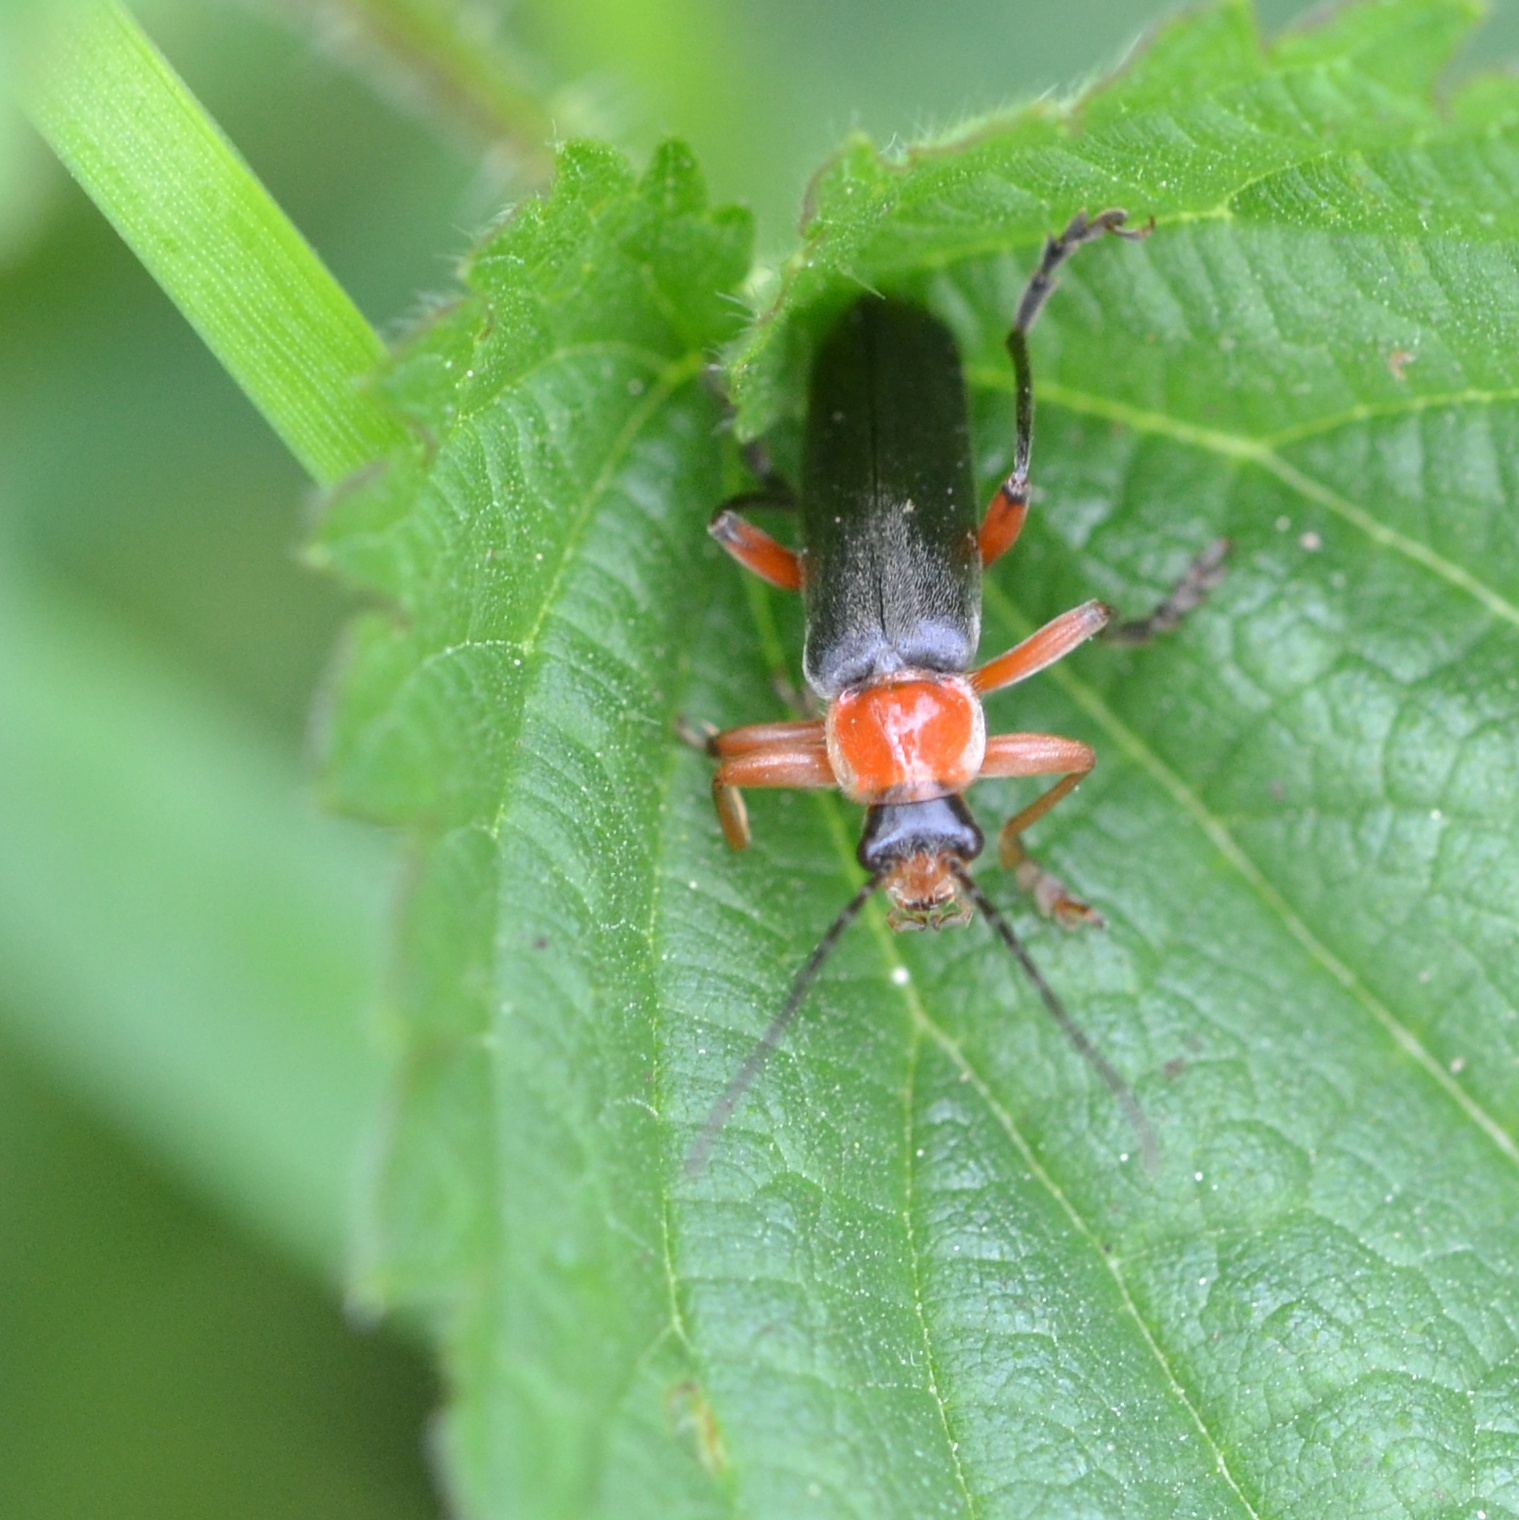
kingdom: Animalia
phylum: Arthropoda
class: Insecta
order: Coleoptera
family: Cantharidae
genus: Cantharis
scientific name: Cantharis pellucida
